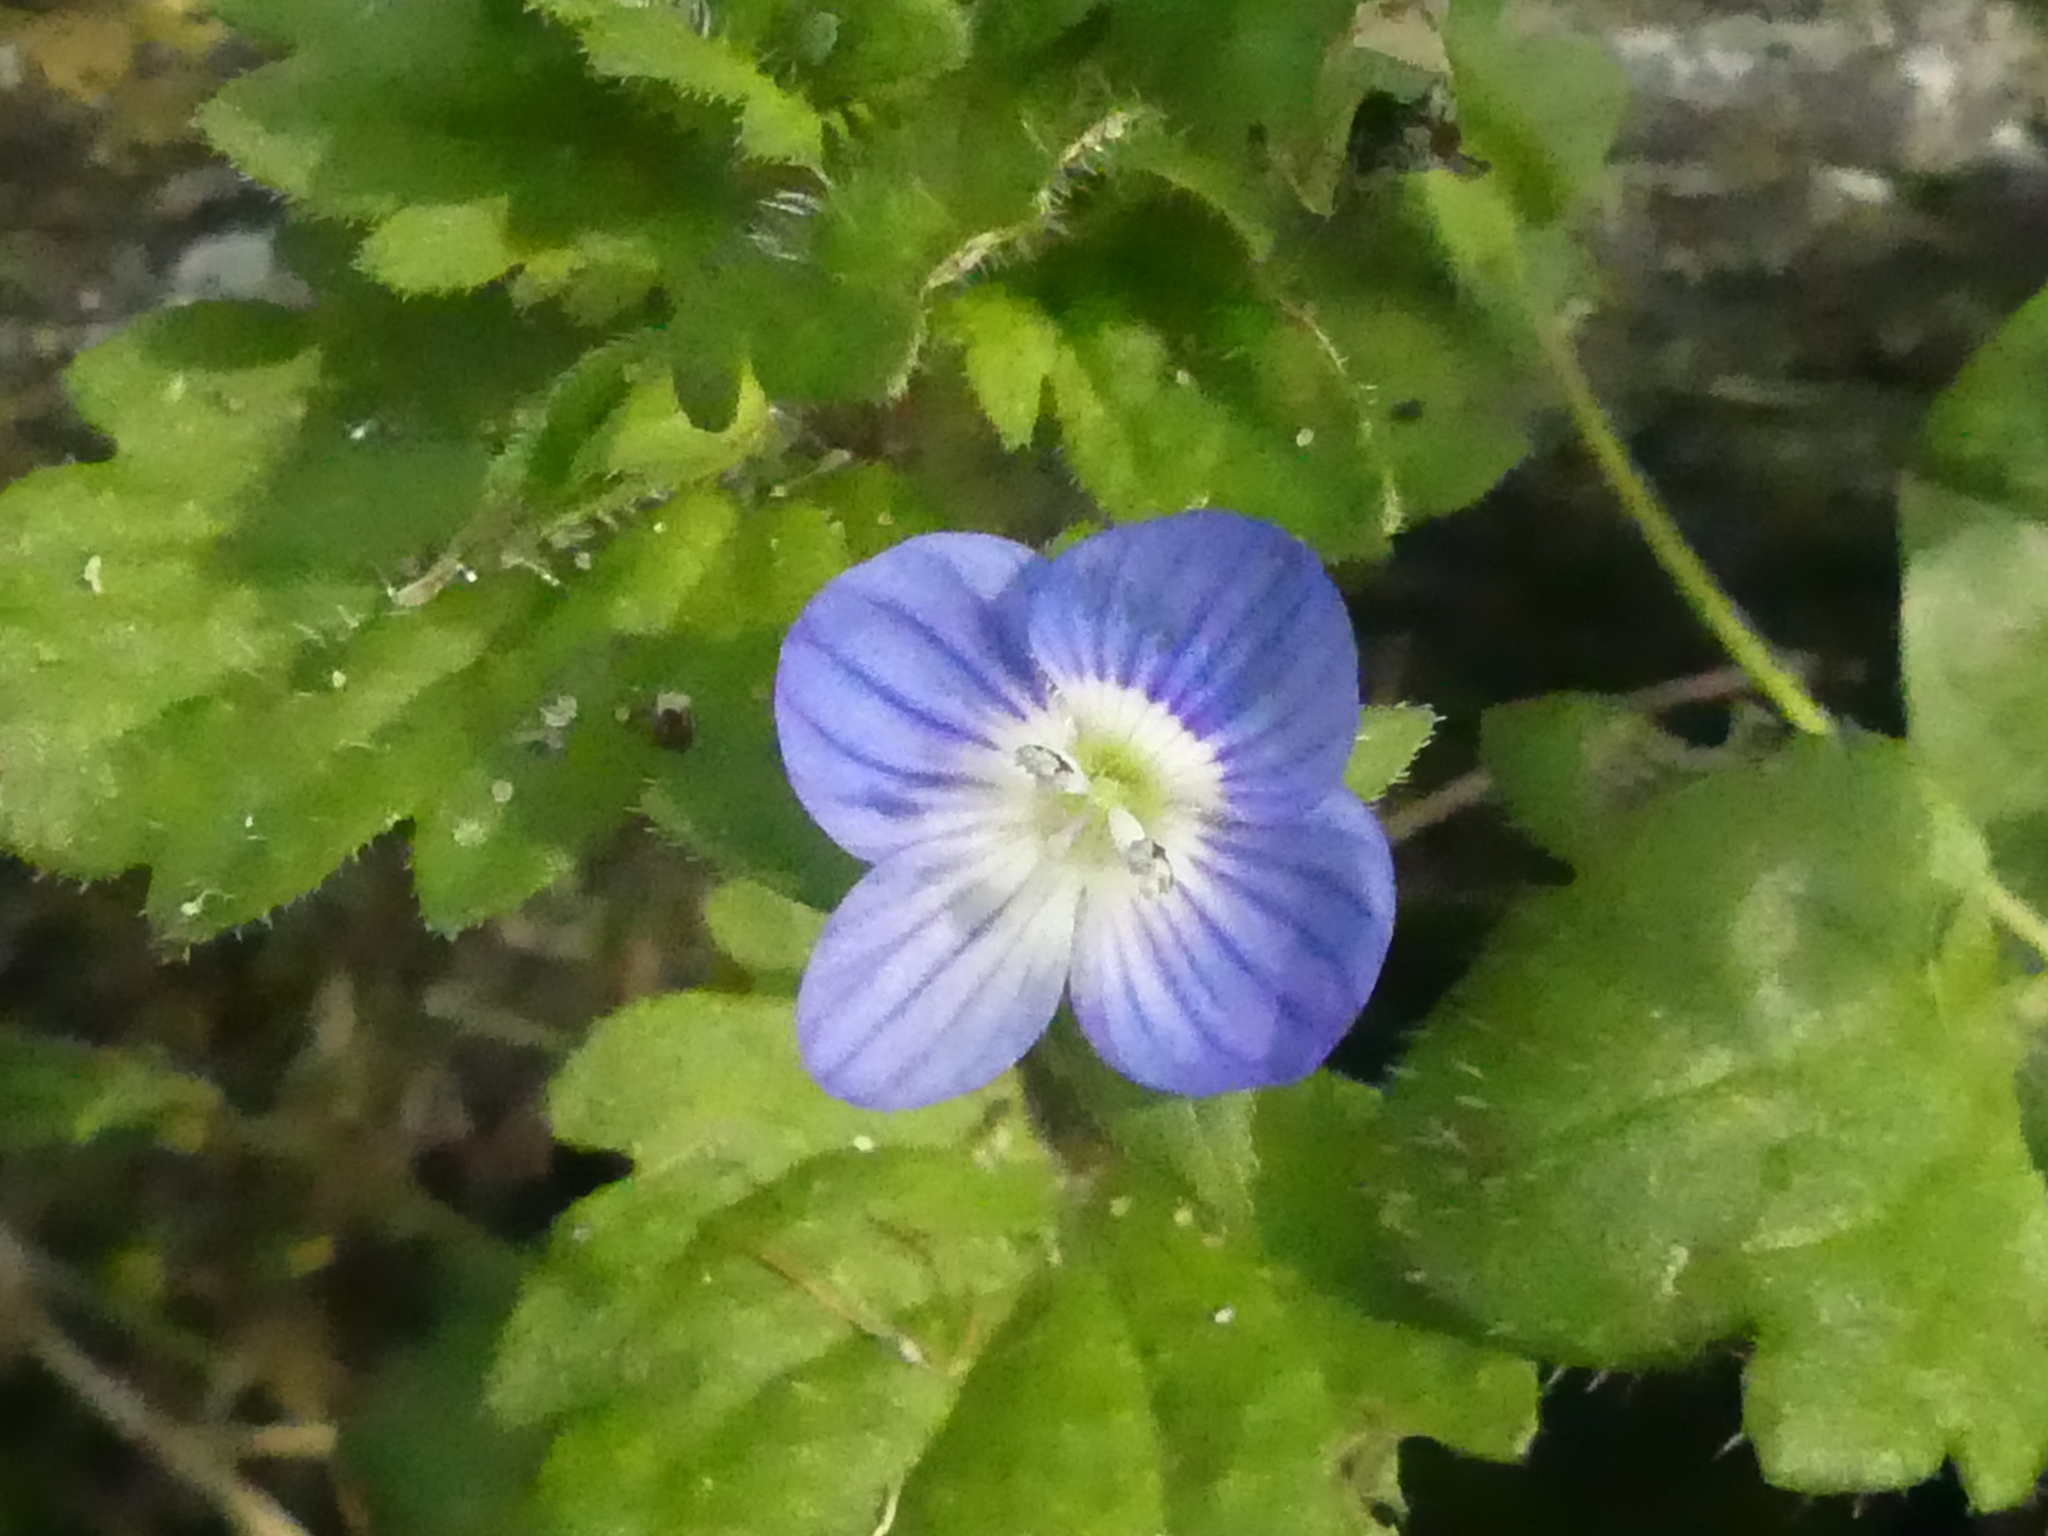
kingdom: Plantae
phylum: Tracheophyta
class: Magnoliopsida
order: Lamiales
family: Plantaginaceae
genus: Veronica
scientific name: Veronica persica
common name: Common field-speedwell
